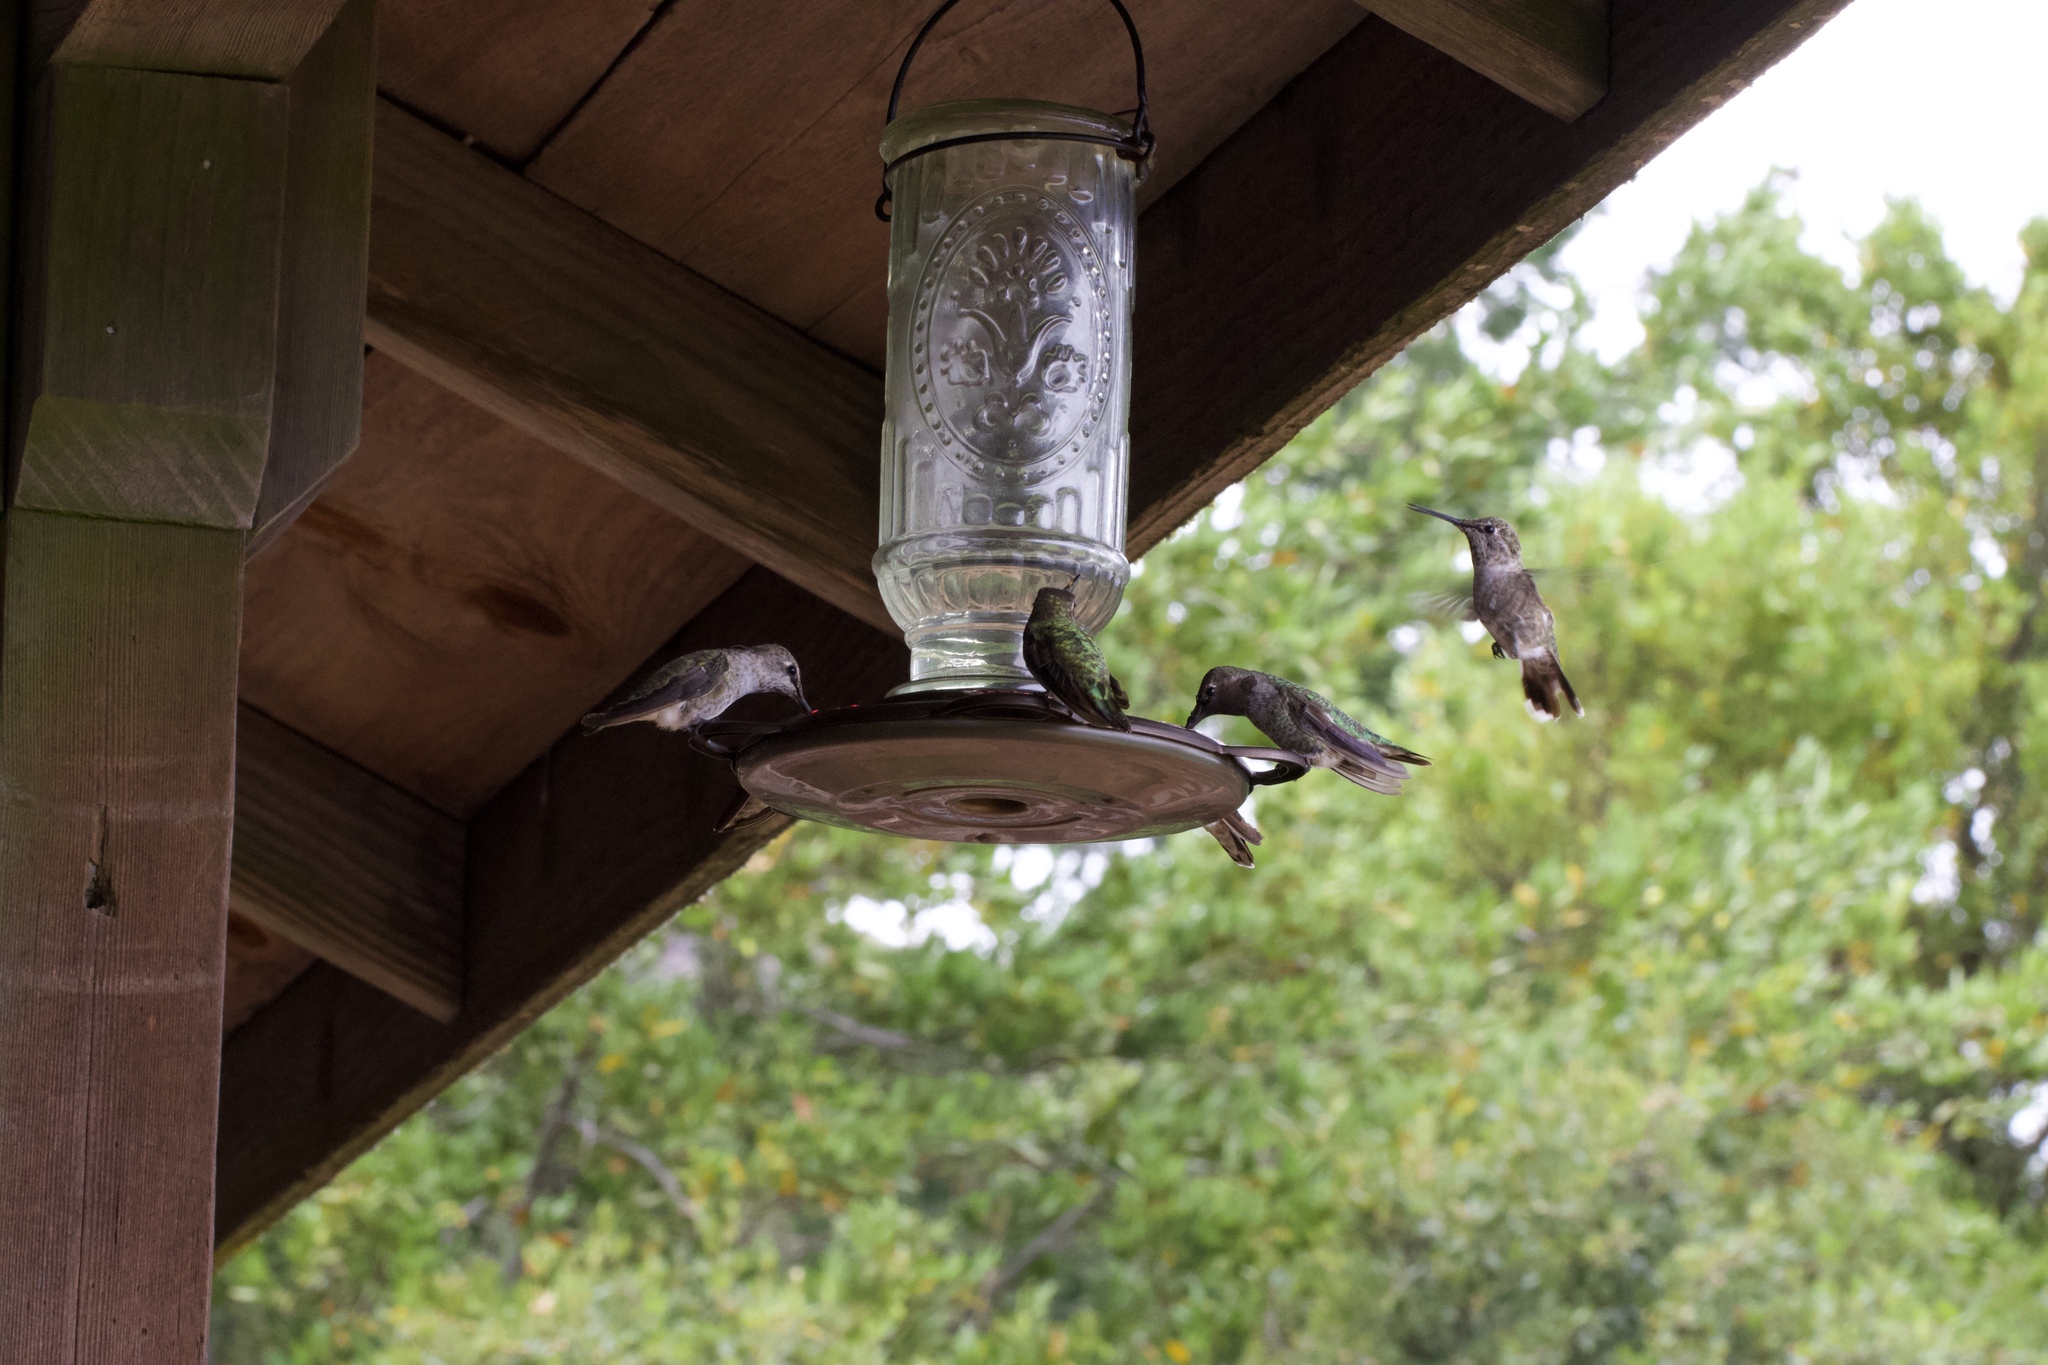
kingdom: Animalia
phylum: Chordata
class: Aves
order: Apodiformes
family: Trochilidae
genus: Calypte
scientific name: Calypte anna
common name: Anna's hummingbird
